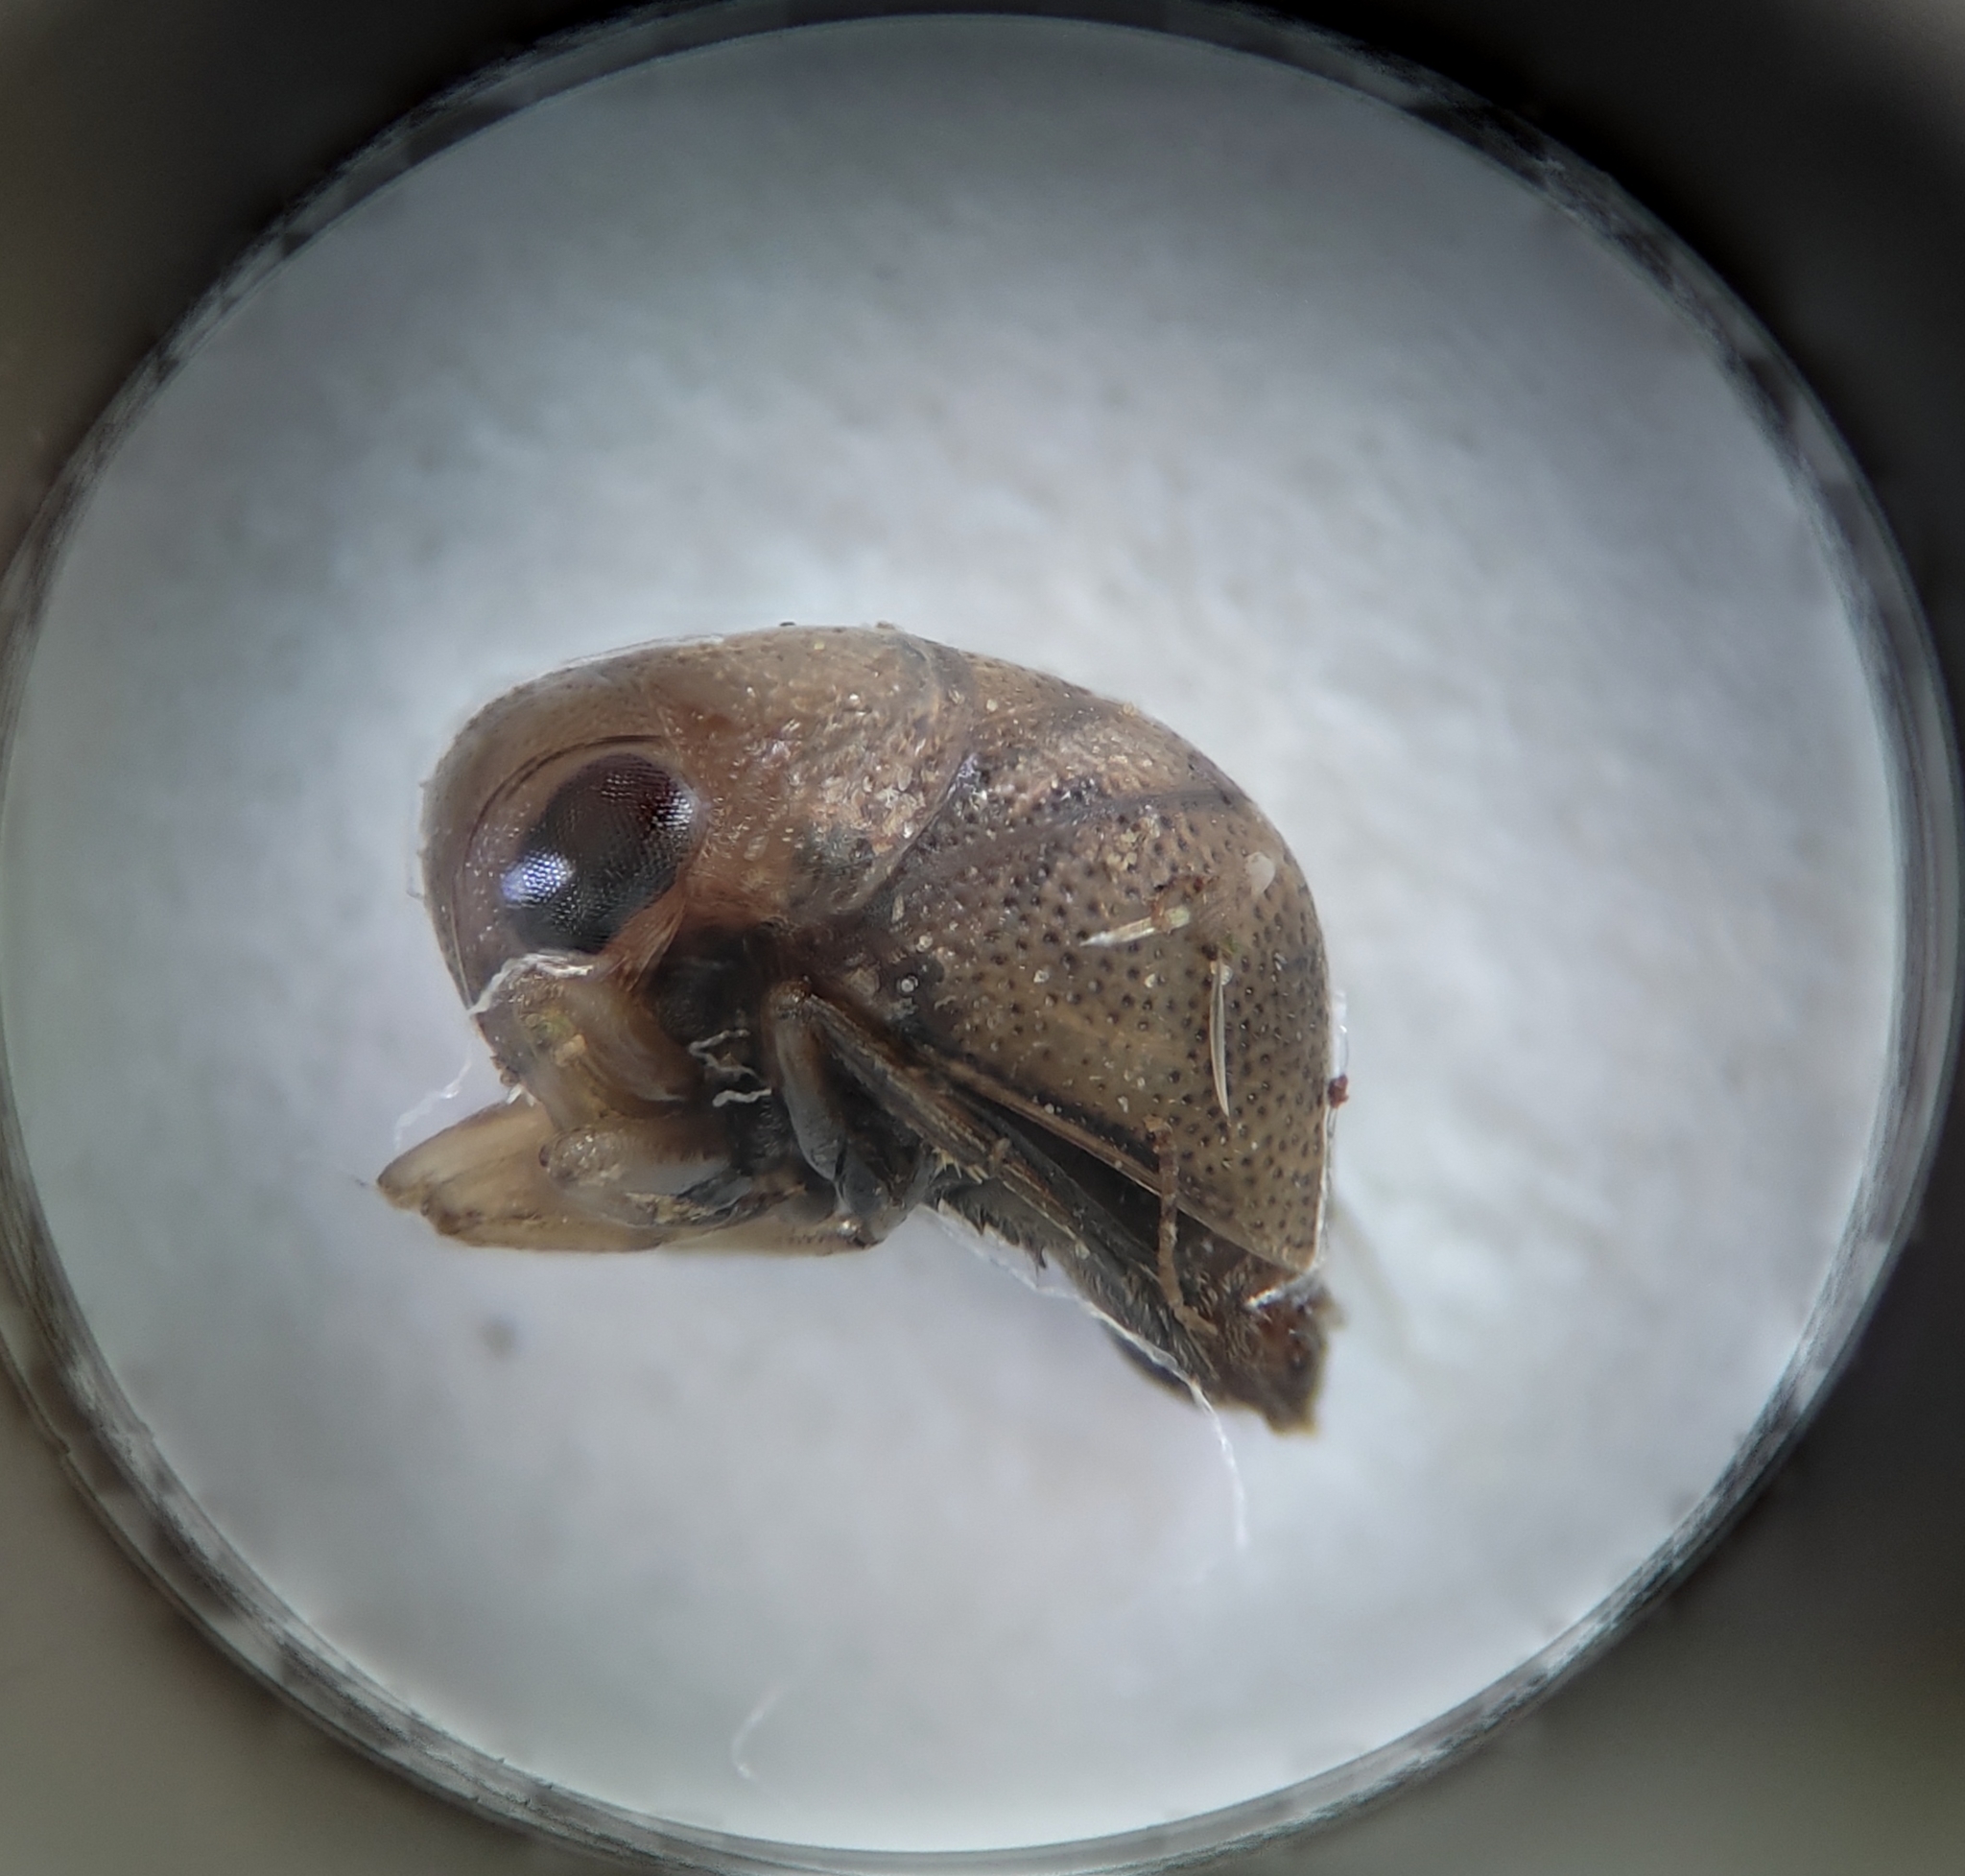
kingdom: Animalia
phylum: Arthropoda
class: Insecta
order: Hemiptera
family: Pleidae
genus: Plea
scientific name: Plea minutissima
